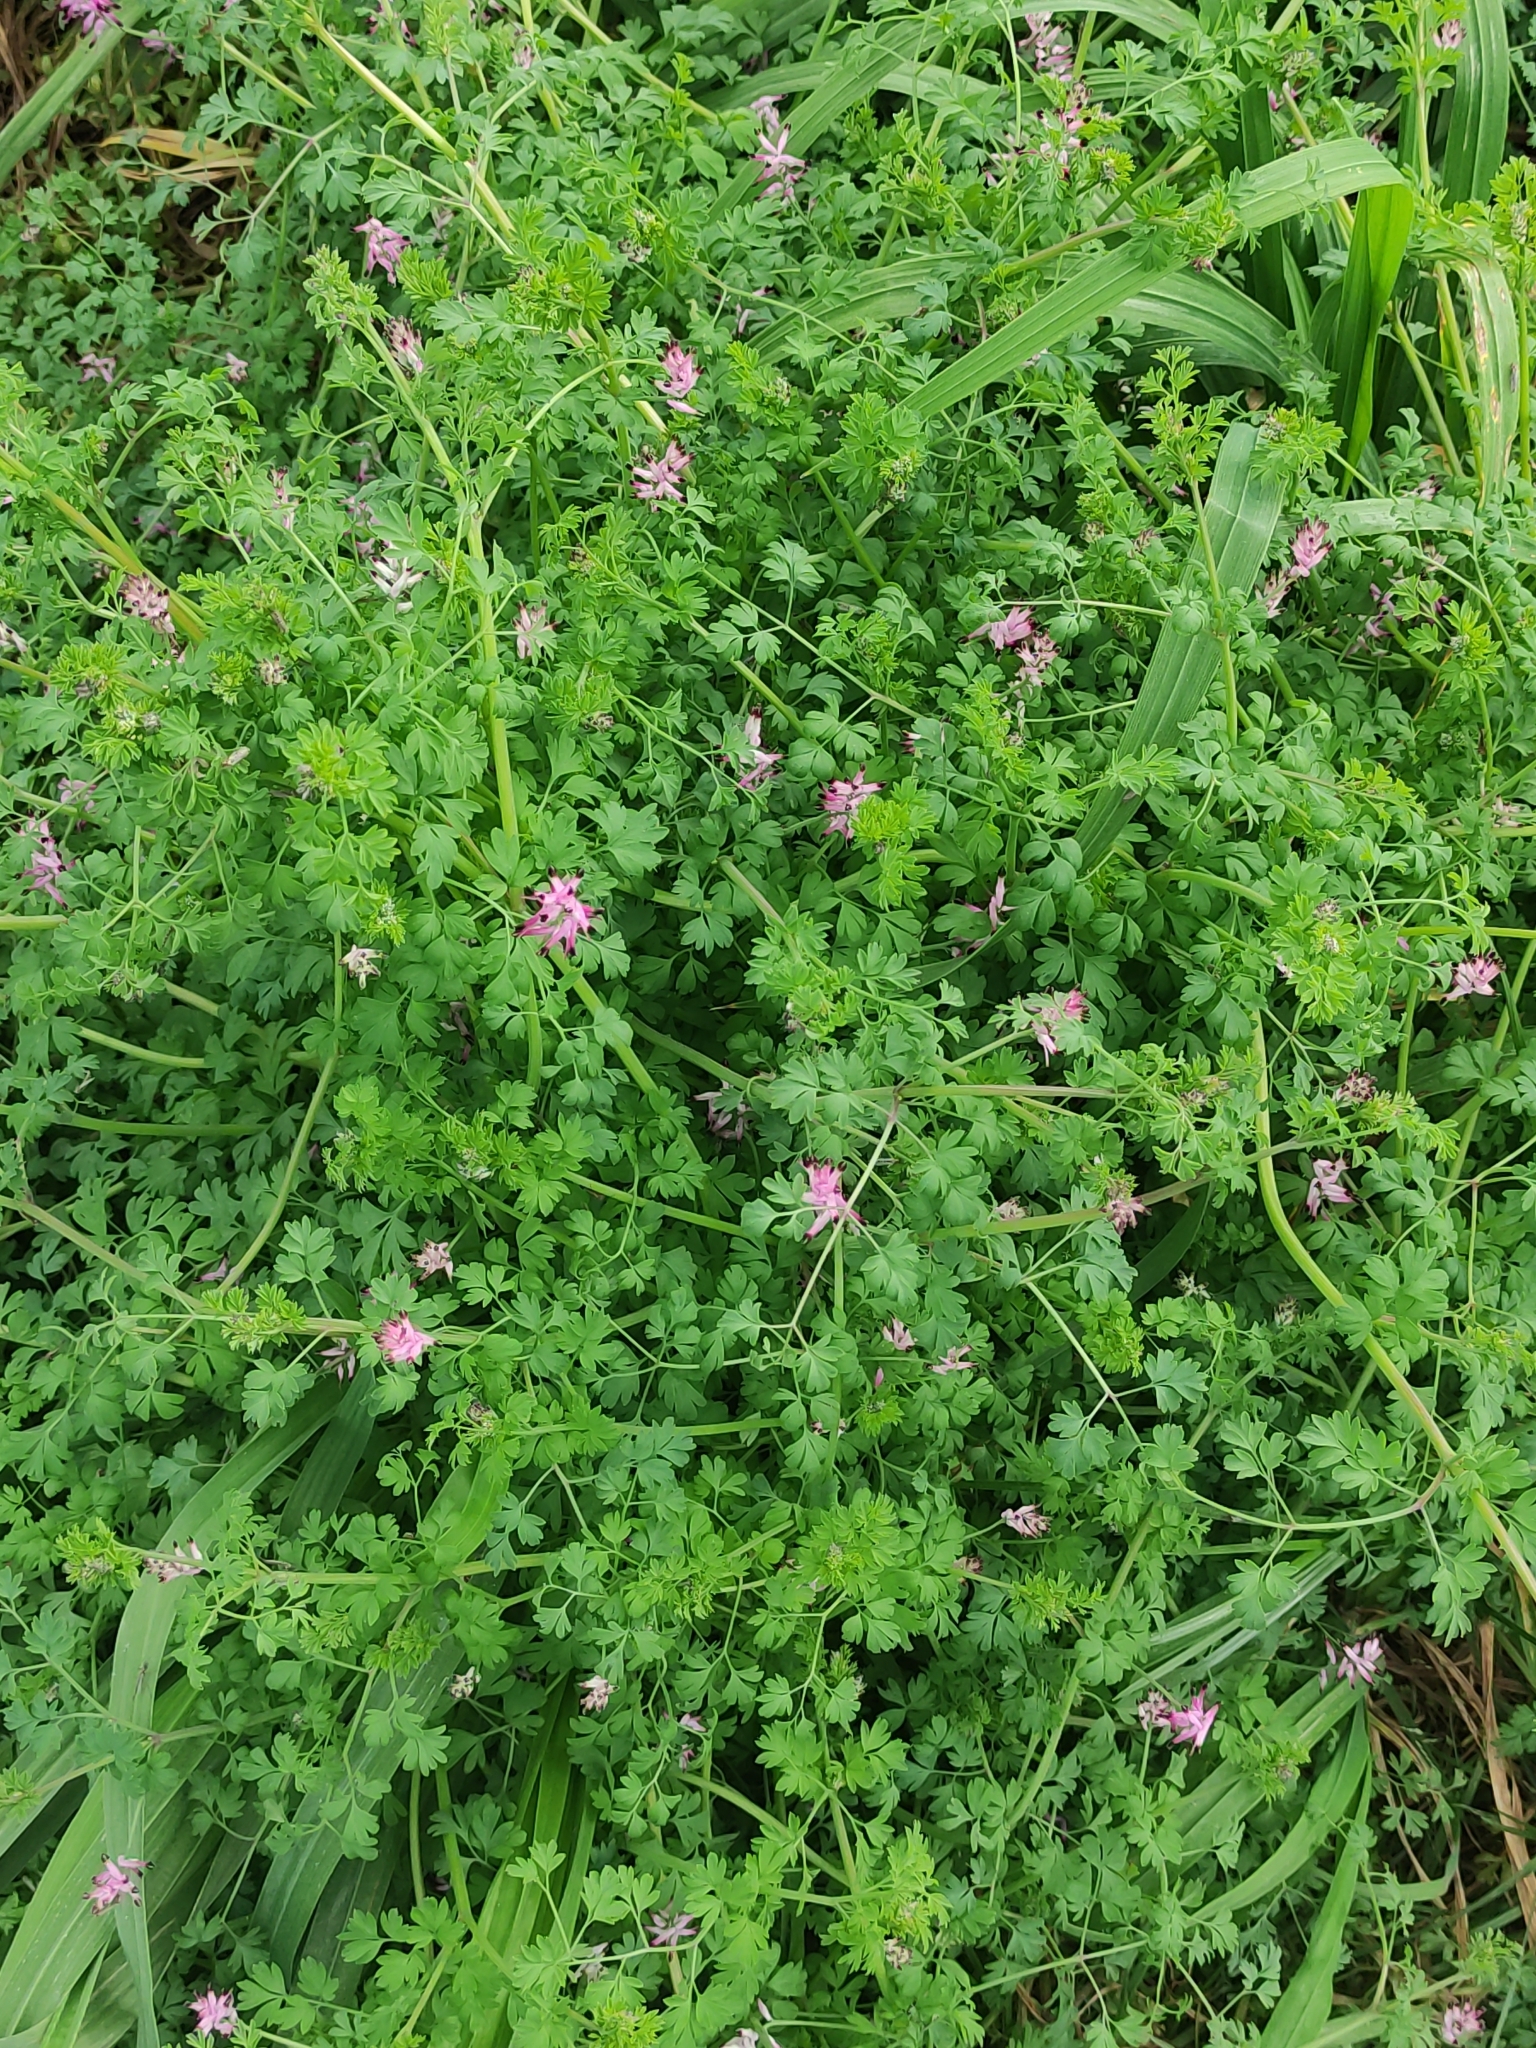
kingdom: Plantae
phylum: Tracheophyta
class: Magnoliopsida
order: Ranunculales
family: Papaveraceae
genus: Fumaria
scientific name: Fumaria muralis
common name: Common ramping-fumitory
